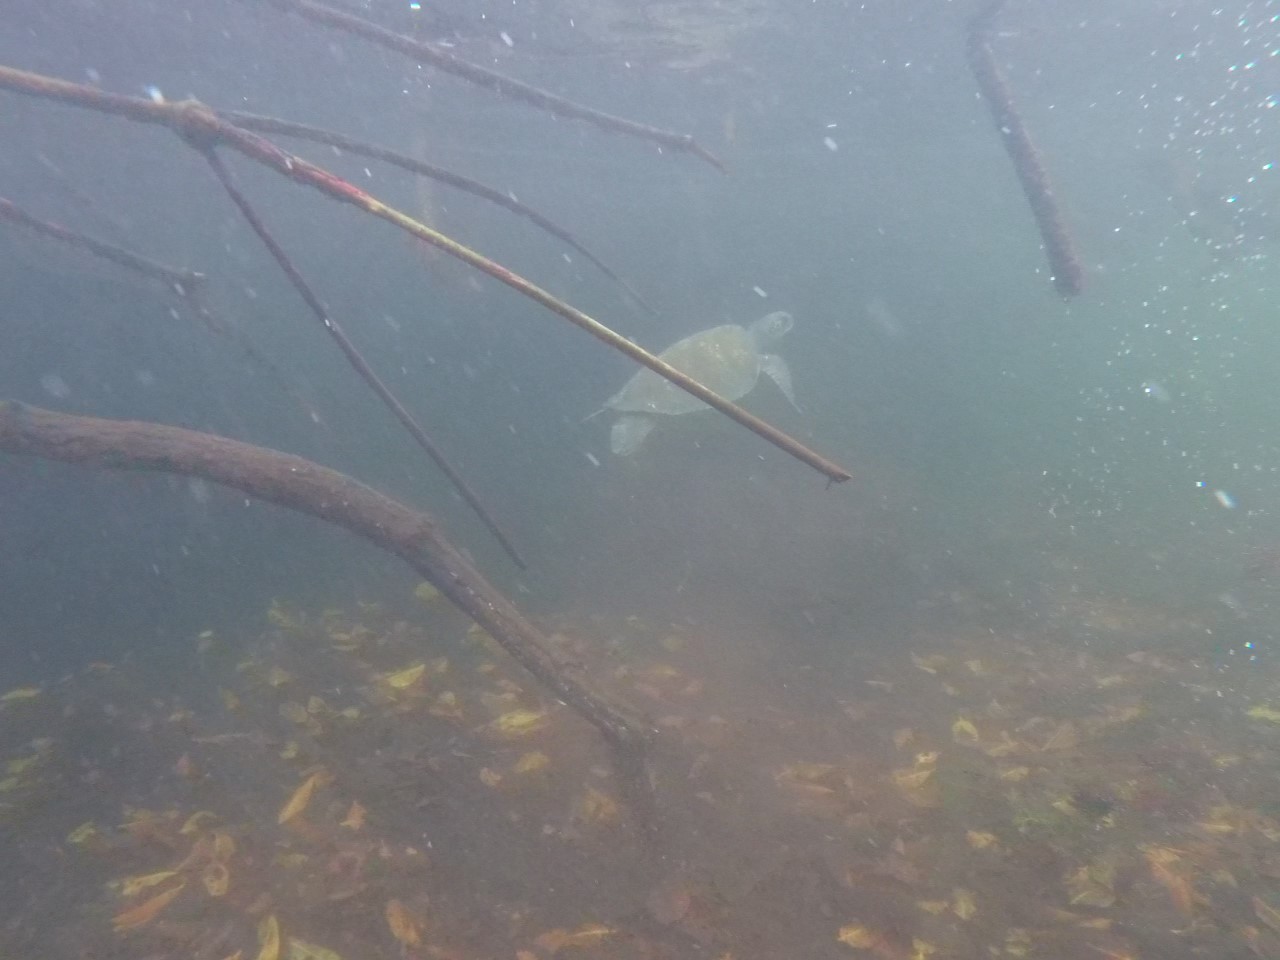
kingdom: Animalia
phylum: Chordata
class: Testudines
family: Cheloniidae
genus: Chelonia
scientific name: Chelonia mydas
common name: Green turtle
